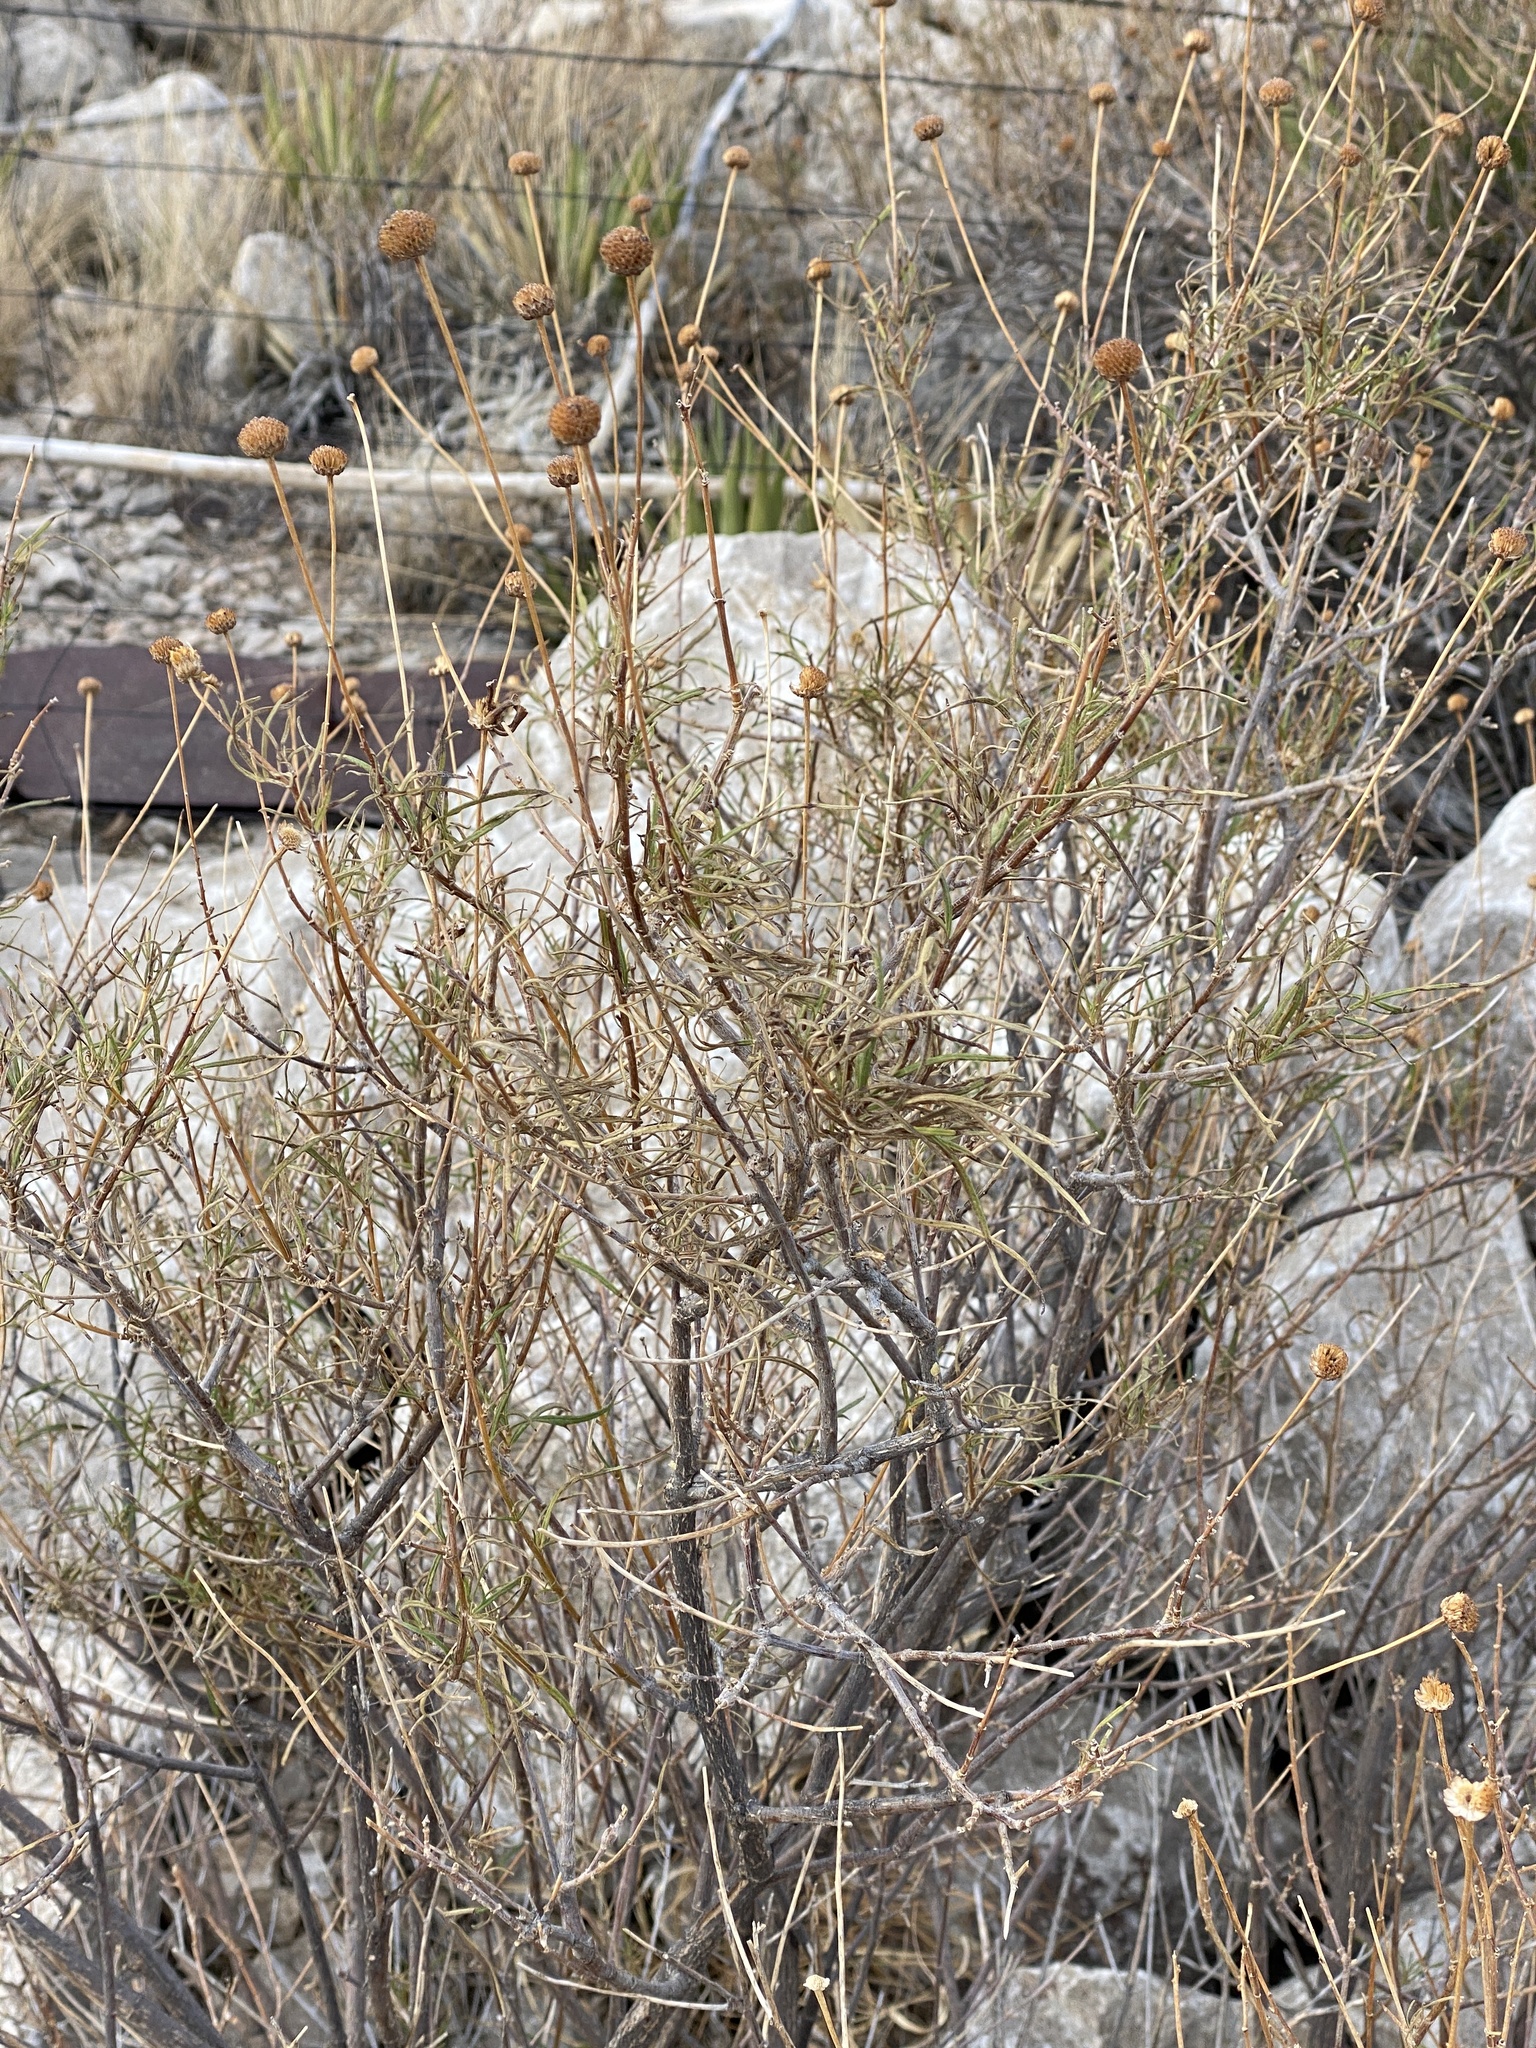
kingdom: Plantae
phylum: Tracheophyta
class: Magnoliopsida
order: Asterales
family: Asteraceae
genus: Sidneya
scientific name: Sidneya tenuifolia
